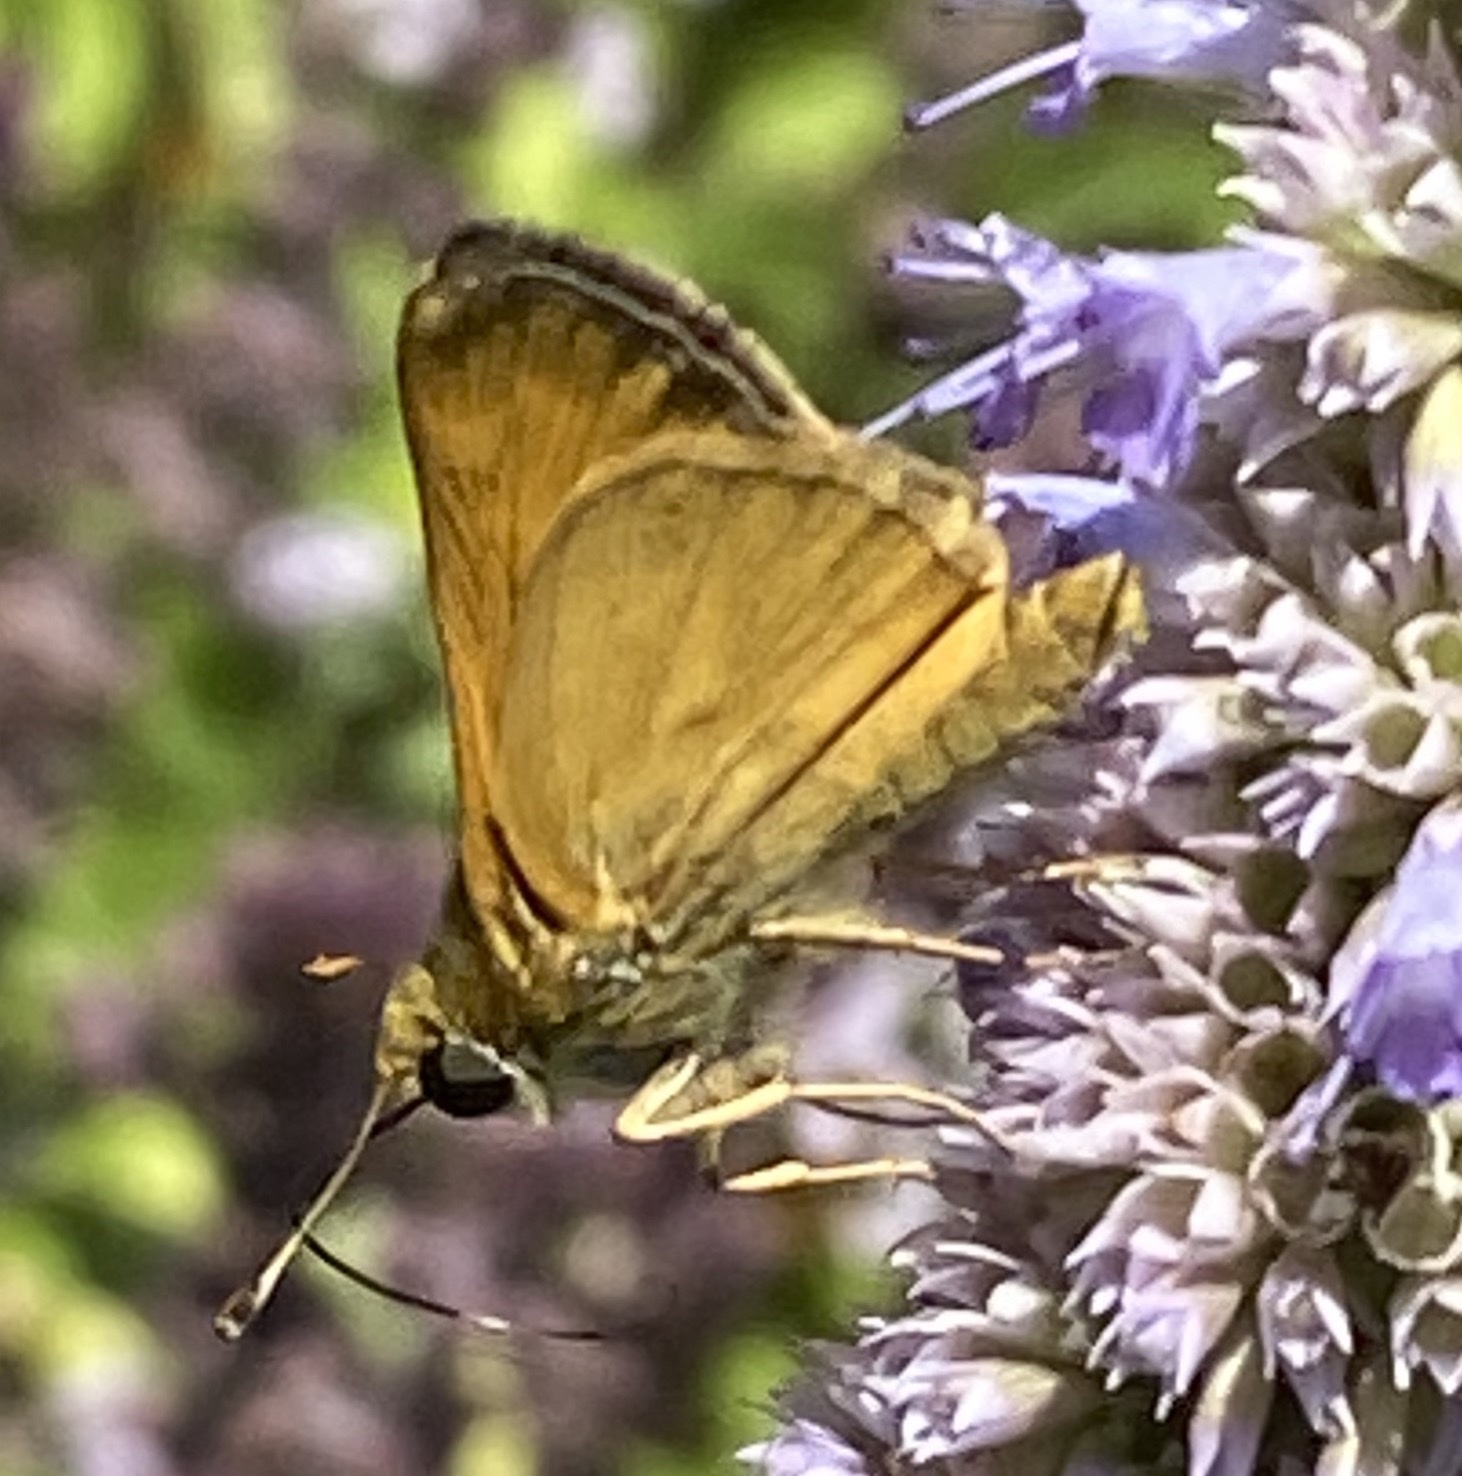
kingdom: Animalia
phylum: Arthropoda
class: Insecta
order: Lepidoptera
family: Hesperiidae
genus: Atalopedes
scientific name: Atalopedes
